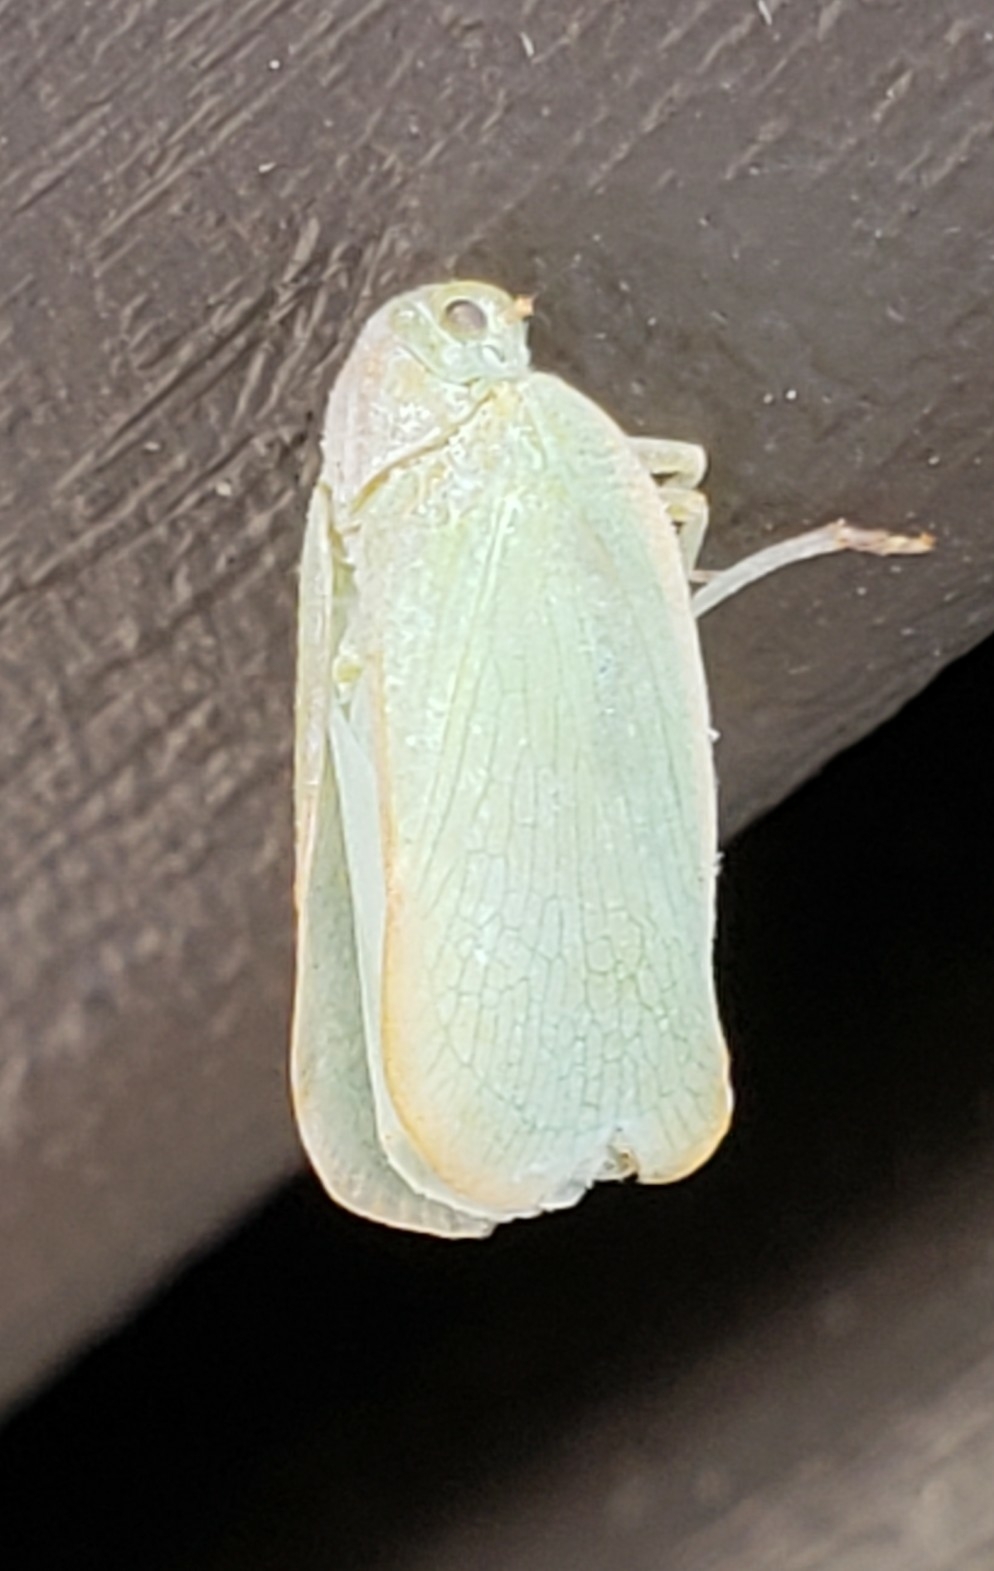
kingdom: Animalia
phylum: Arthropoda
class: Insecta
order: Hemiptera
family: Flatidae
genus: Ormenoides
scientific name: Ormenoides venusta
